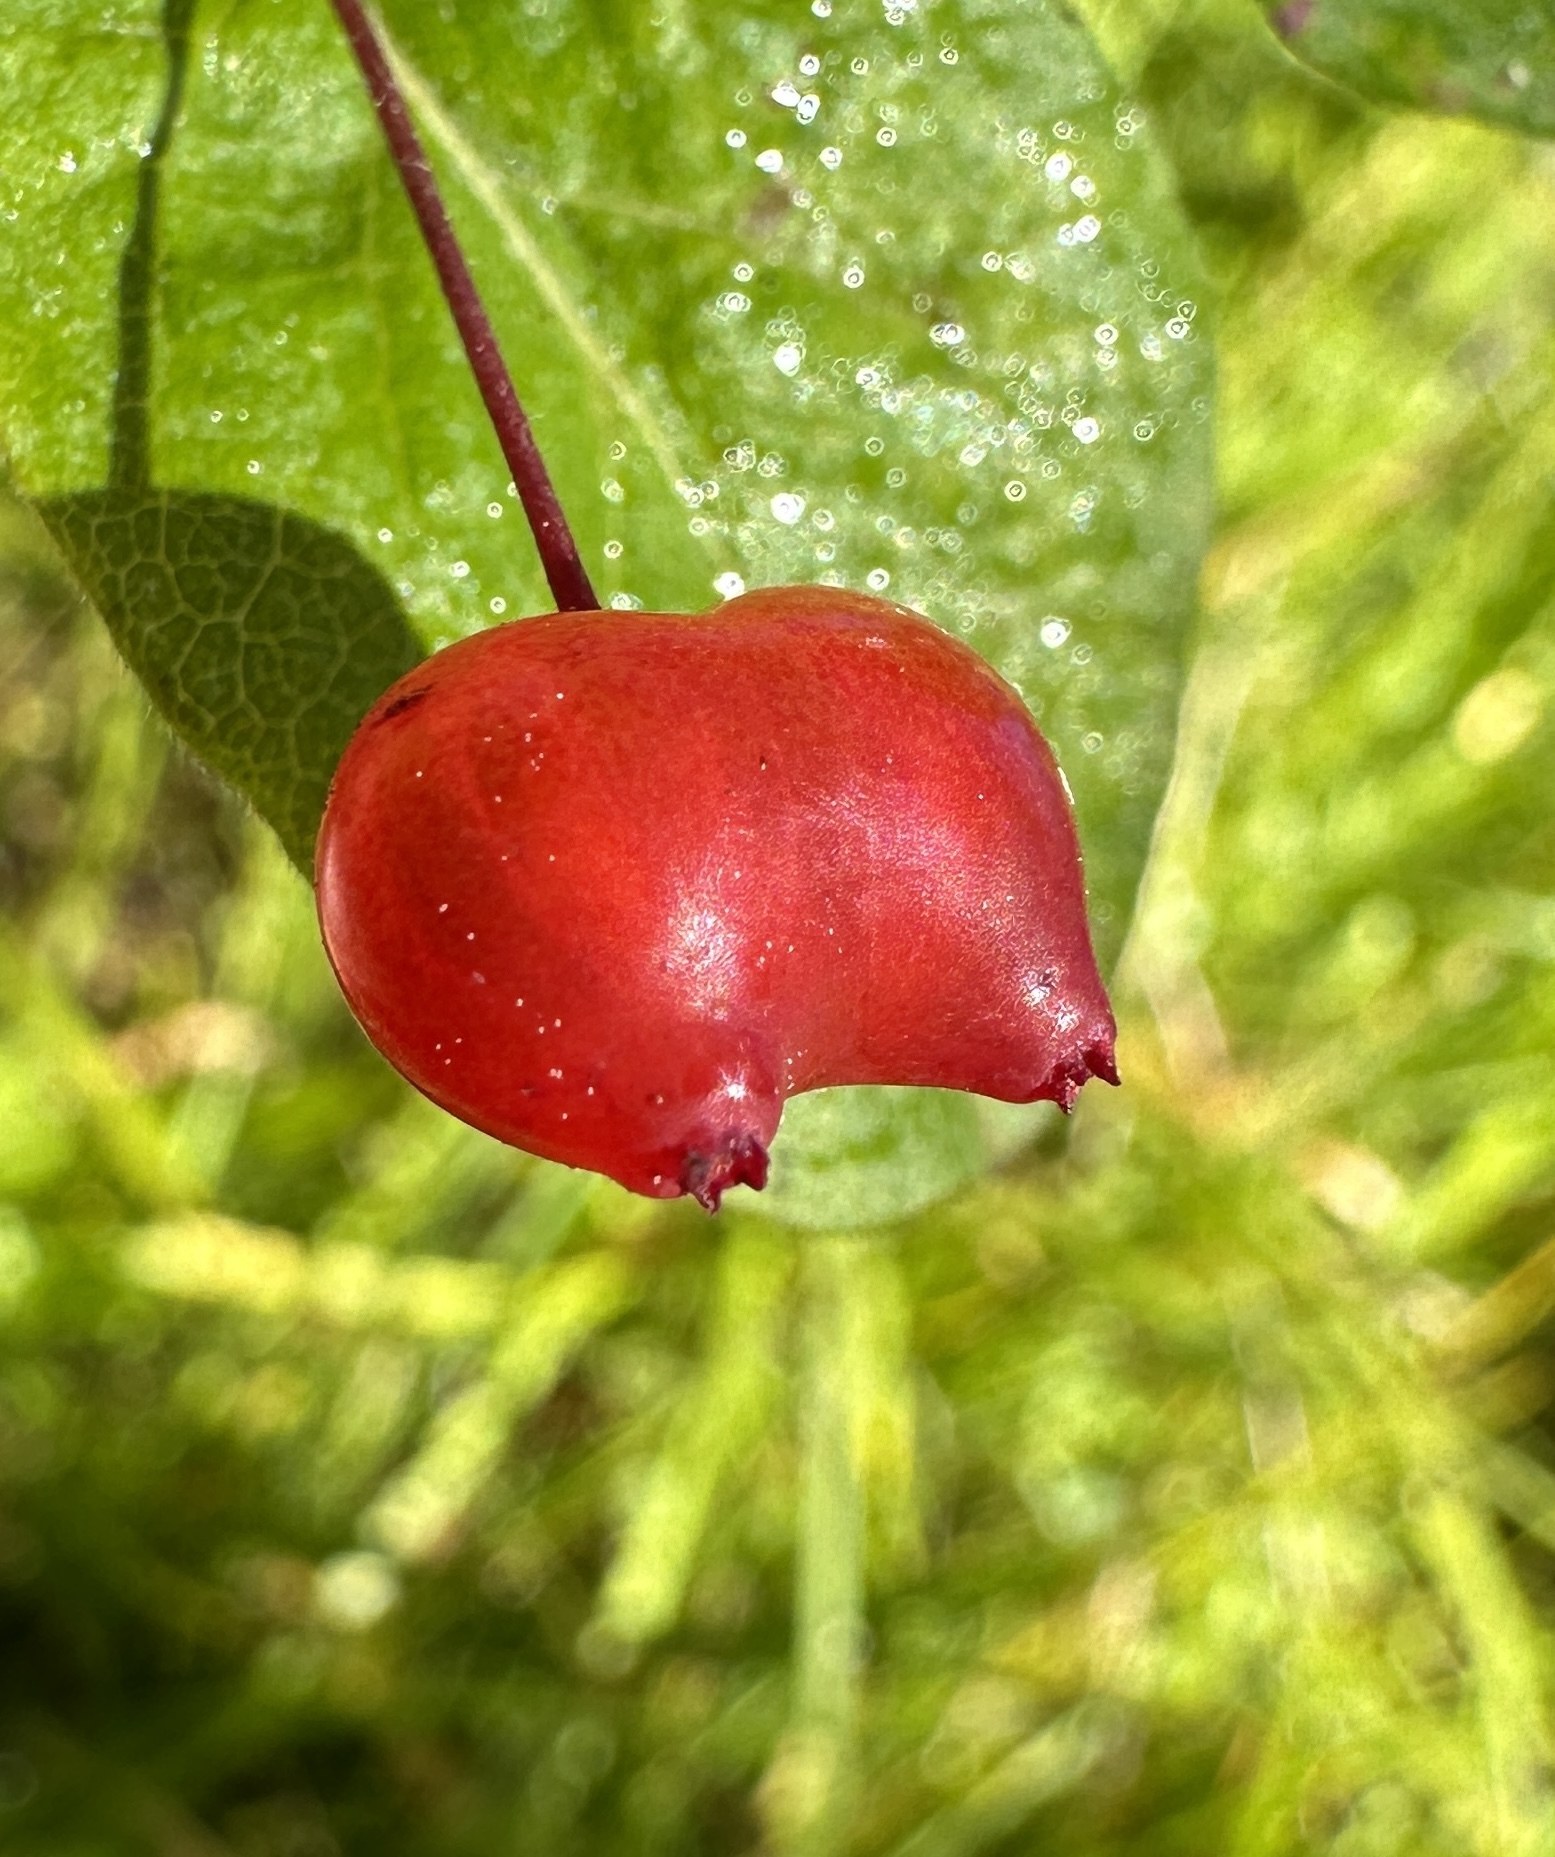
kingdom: Plantae
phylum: Tracheophyta
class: Magnoliopsida
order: Dipsacales
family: Caprifoliaceae
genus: Lonicera
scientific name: Lonicera conjugialis
